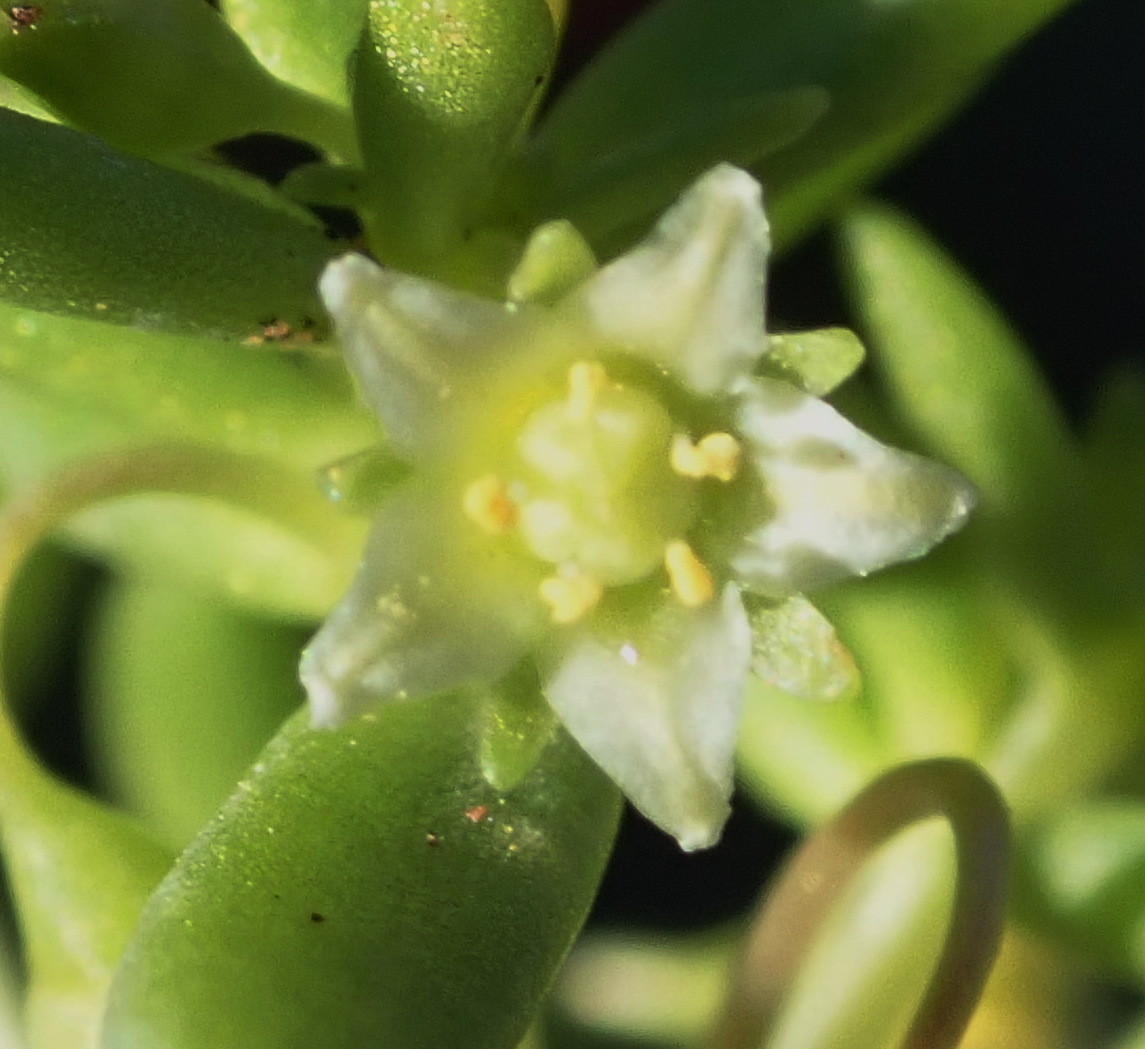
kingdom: Plantae
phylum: Tracheophyta
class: Magnoliopsida
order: Saxifragales
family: Crassulaceae
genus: Crassula
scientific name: Crassula expansa
